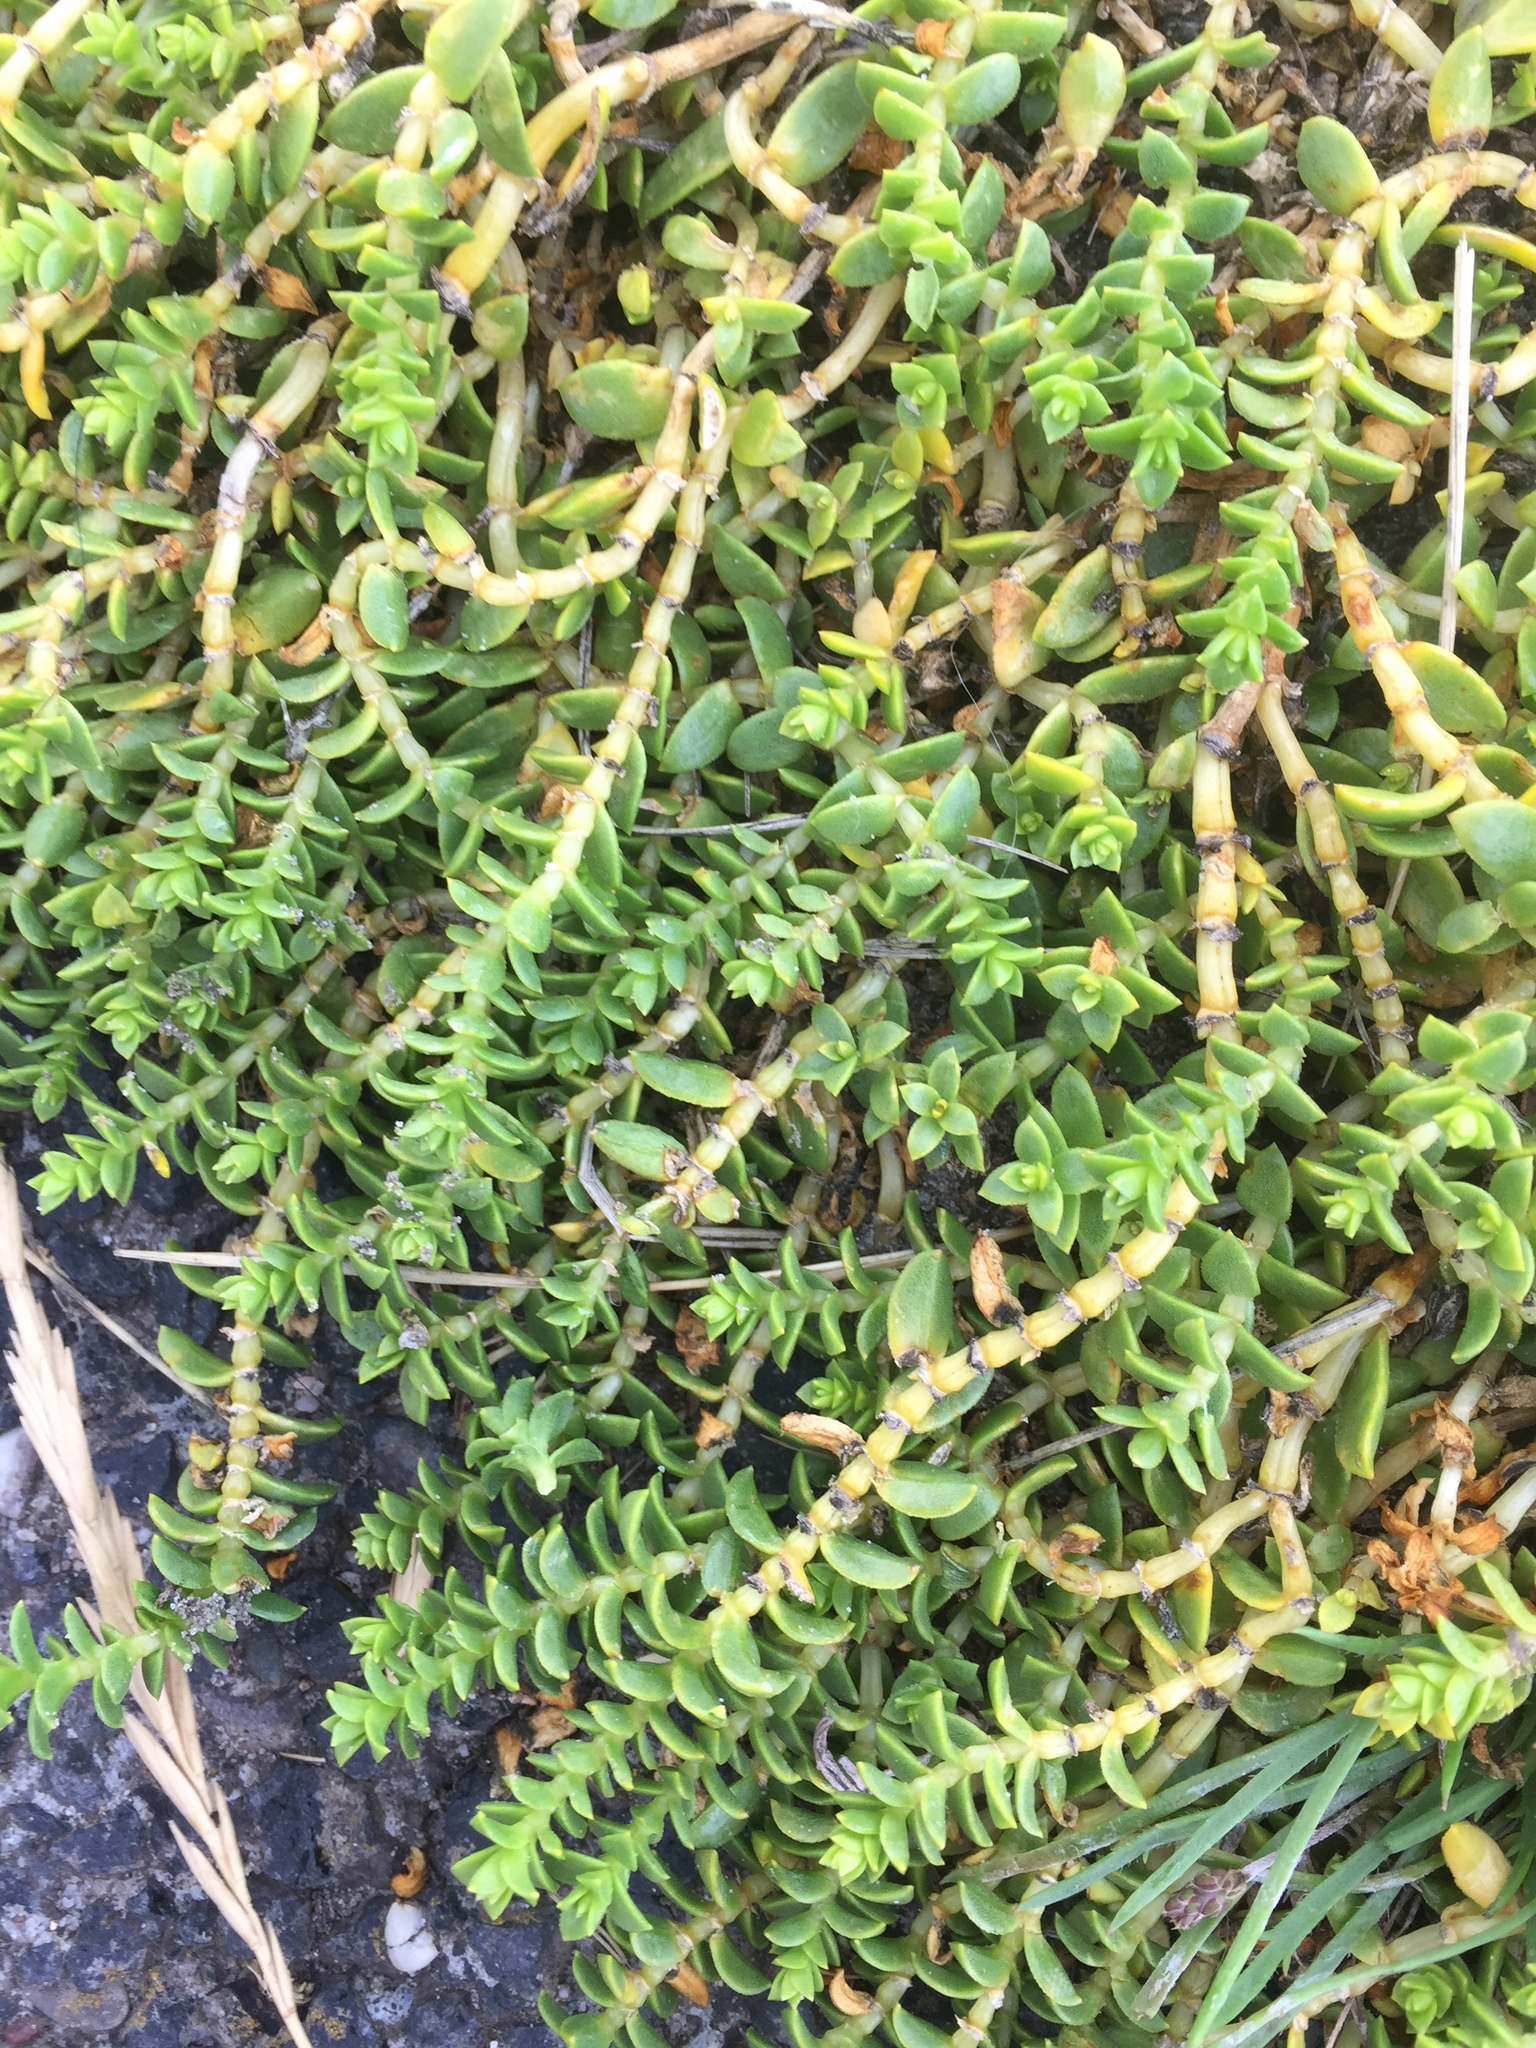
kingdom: Plantae
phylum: Tracheophyta
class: Magnoliopsida
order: Caryophyllales
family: Caryophyllaceae
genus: Honckenya
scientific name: Honckenya peploides
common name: Sea sandwort
